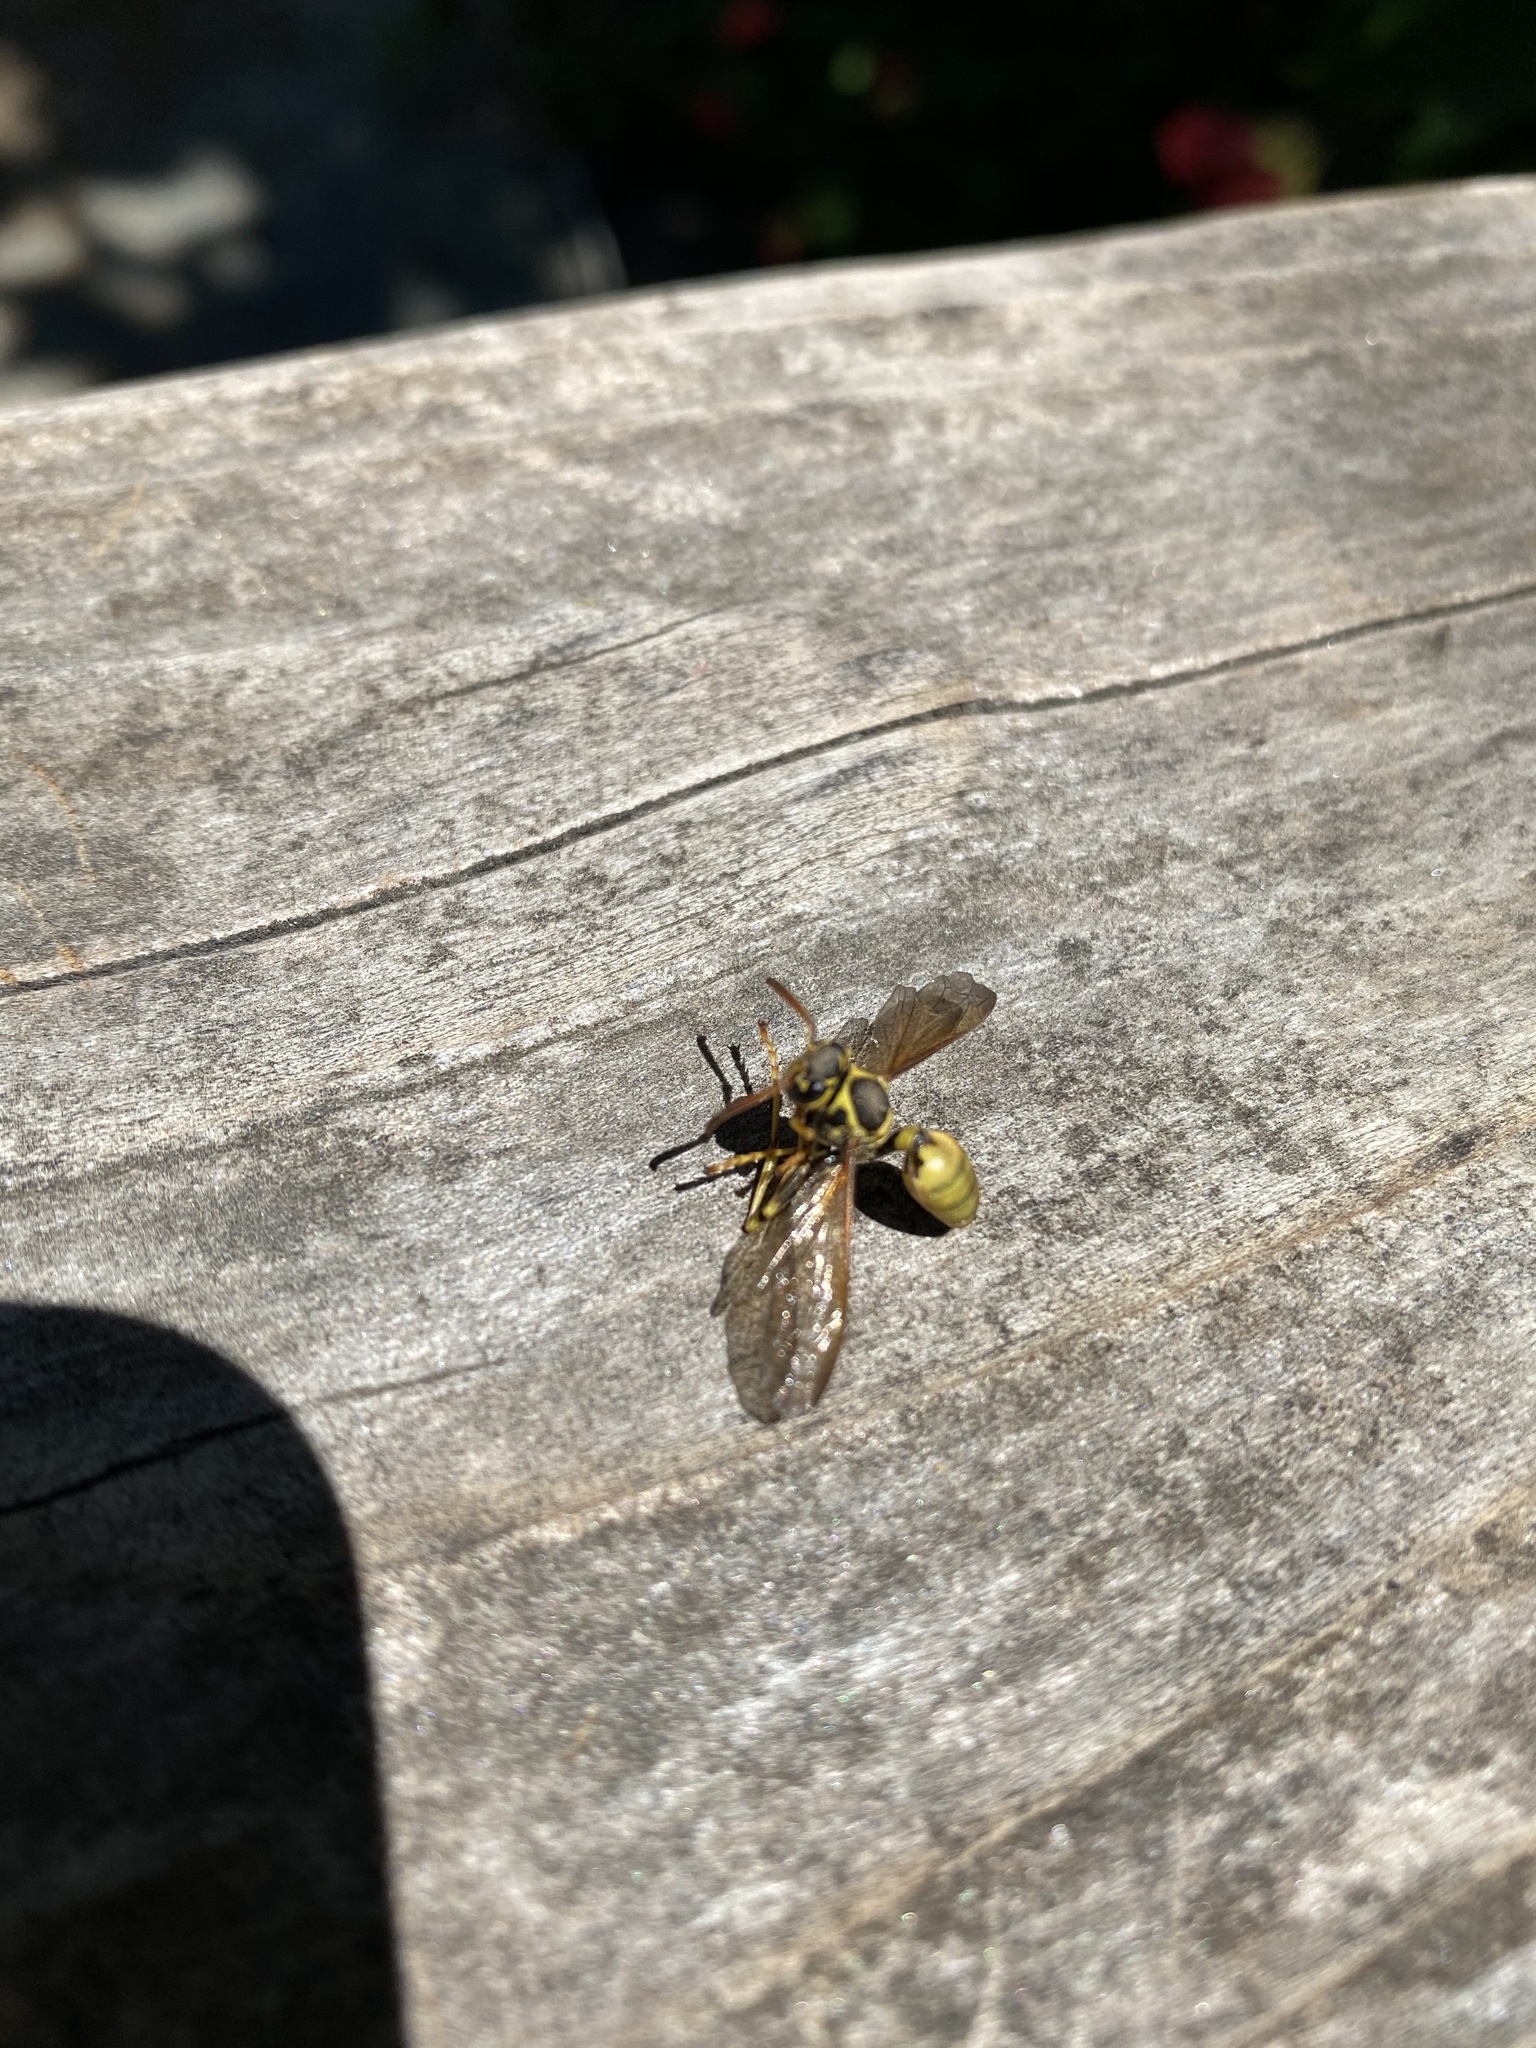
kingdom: Animalia
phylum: Arthropoda
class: Insecta
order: Hymenoptera
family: Vespidae
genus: Mischocyttarus
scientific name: Mischocyttarus flavitarsis
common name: Wasp
